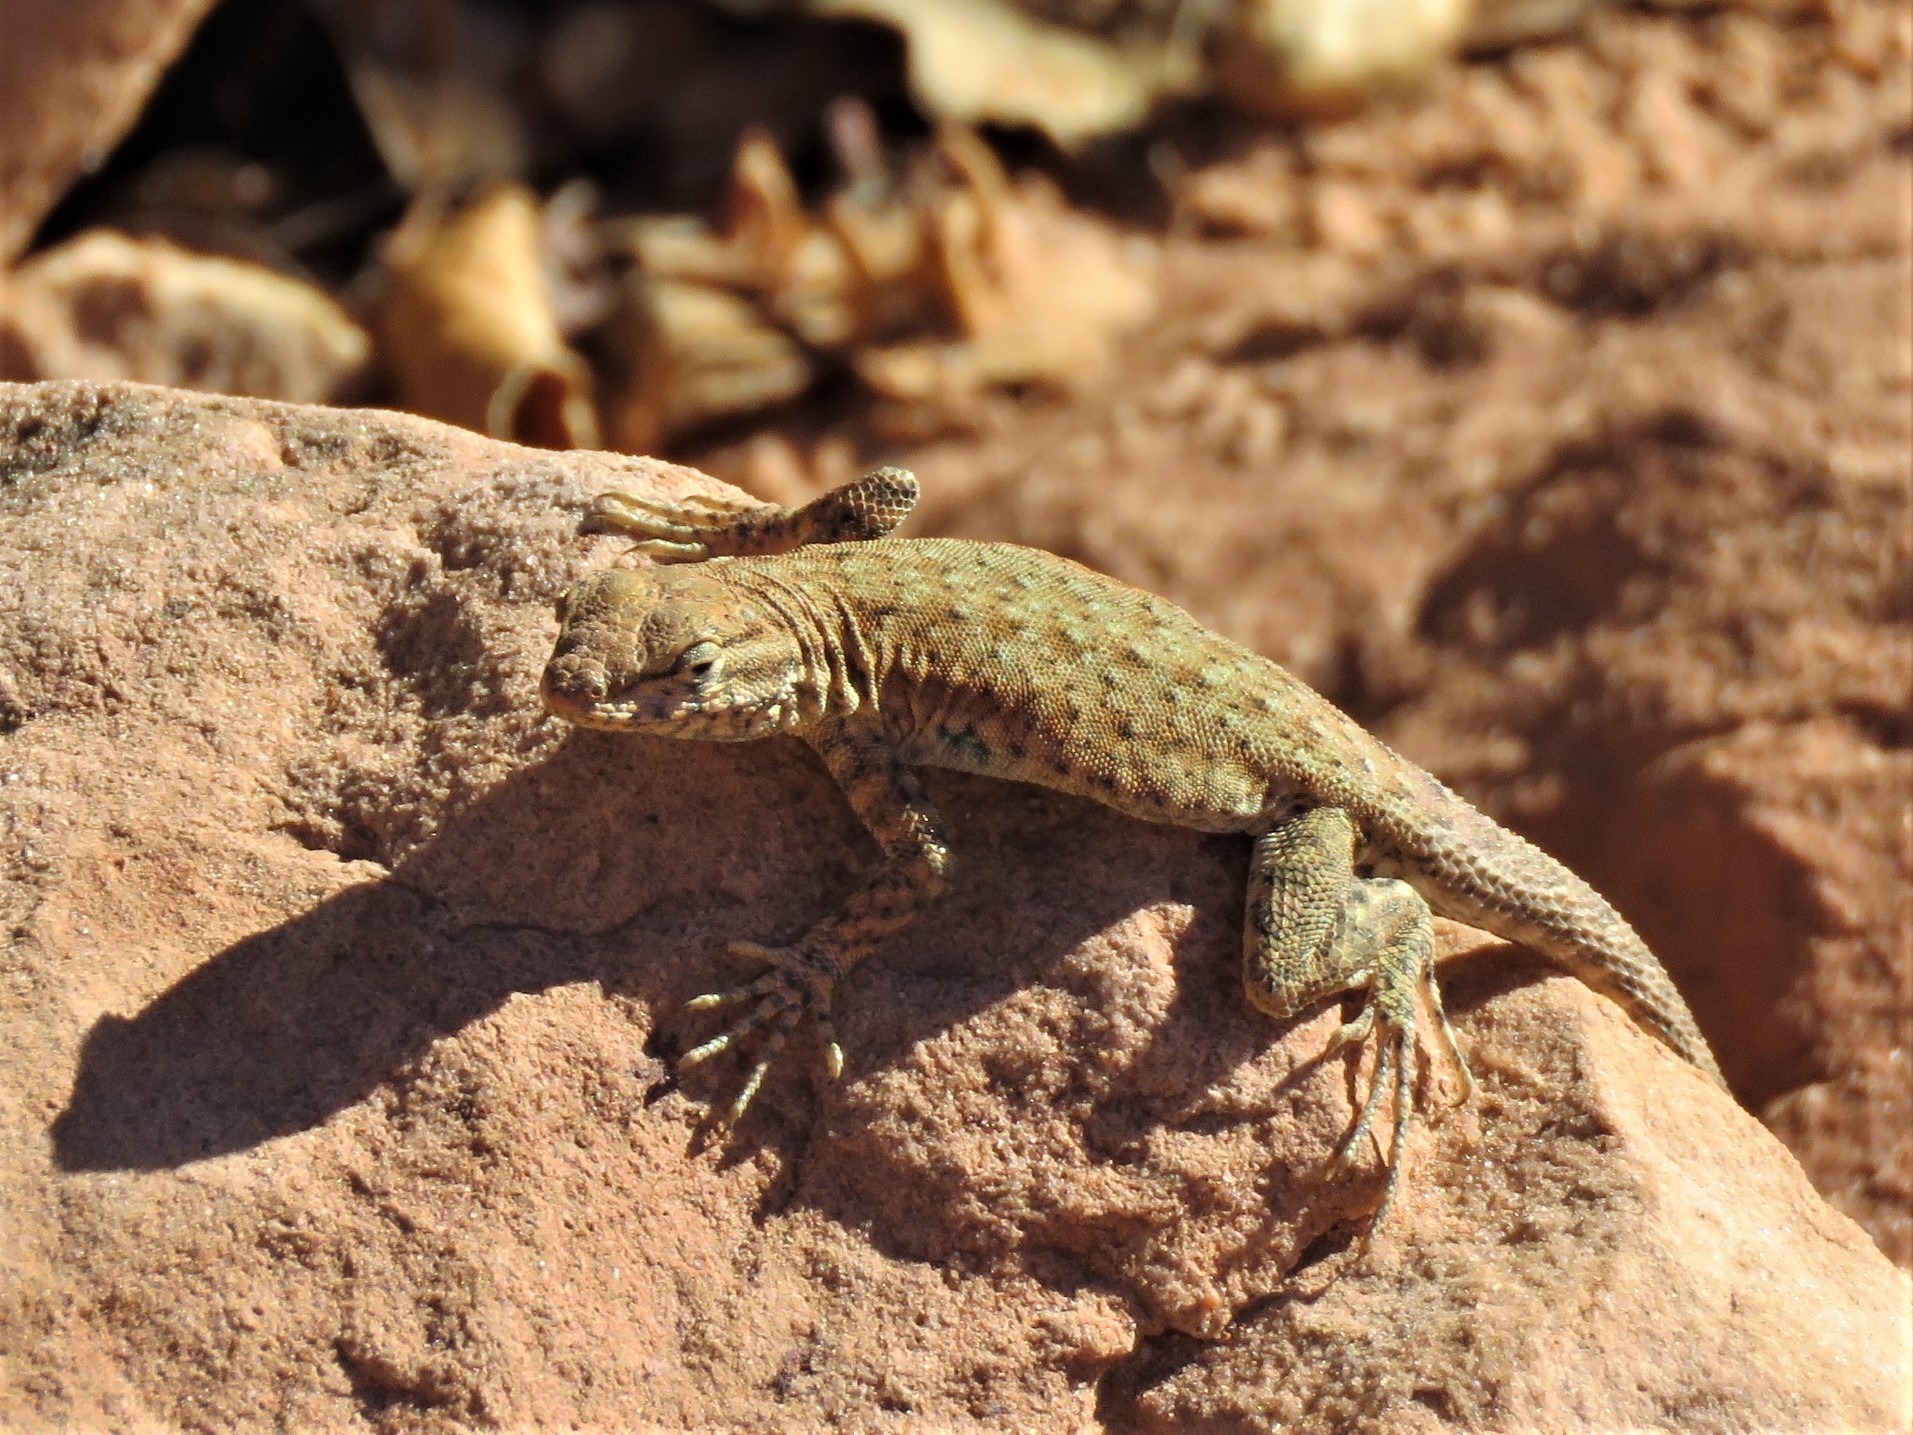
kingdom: Animalia
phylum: Chordata
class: Squamata
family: Phrynosomatidae
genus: Uta
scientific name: Uta stansburiana
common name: Side-blotched lizard
